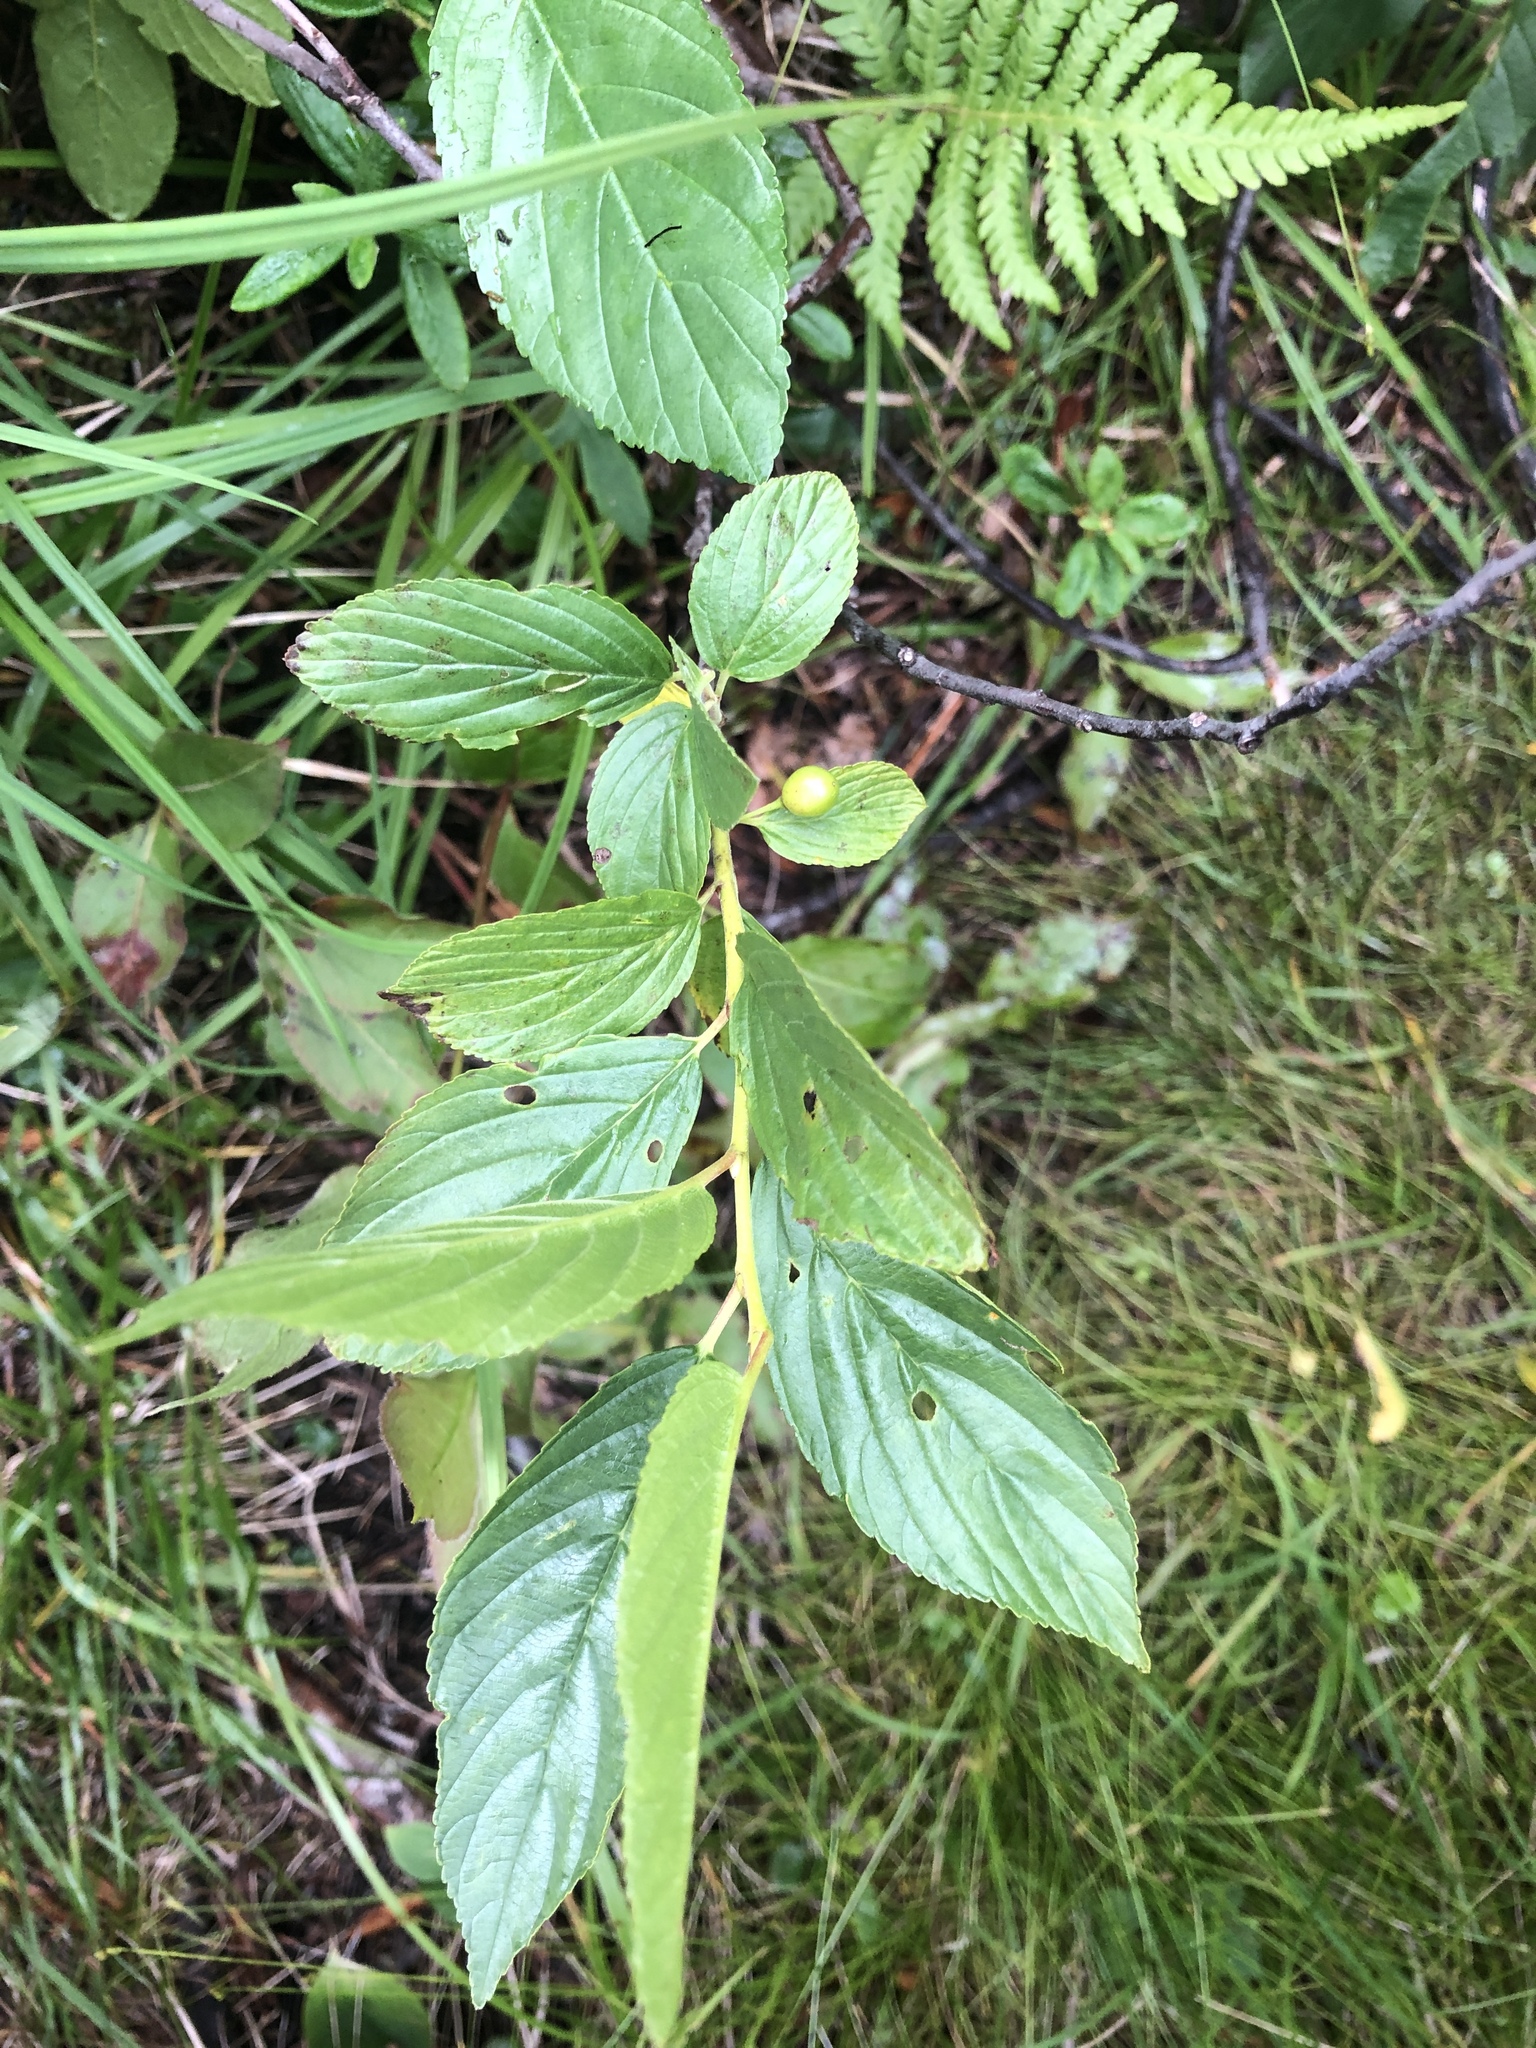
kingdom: Plantae
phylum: Tracheophyta
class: Magnoliopsida
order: Rosales
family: Rhamnaceae
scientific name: Rhamnaceae
